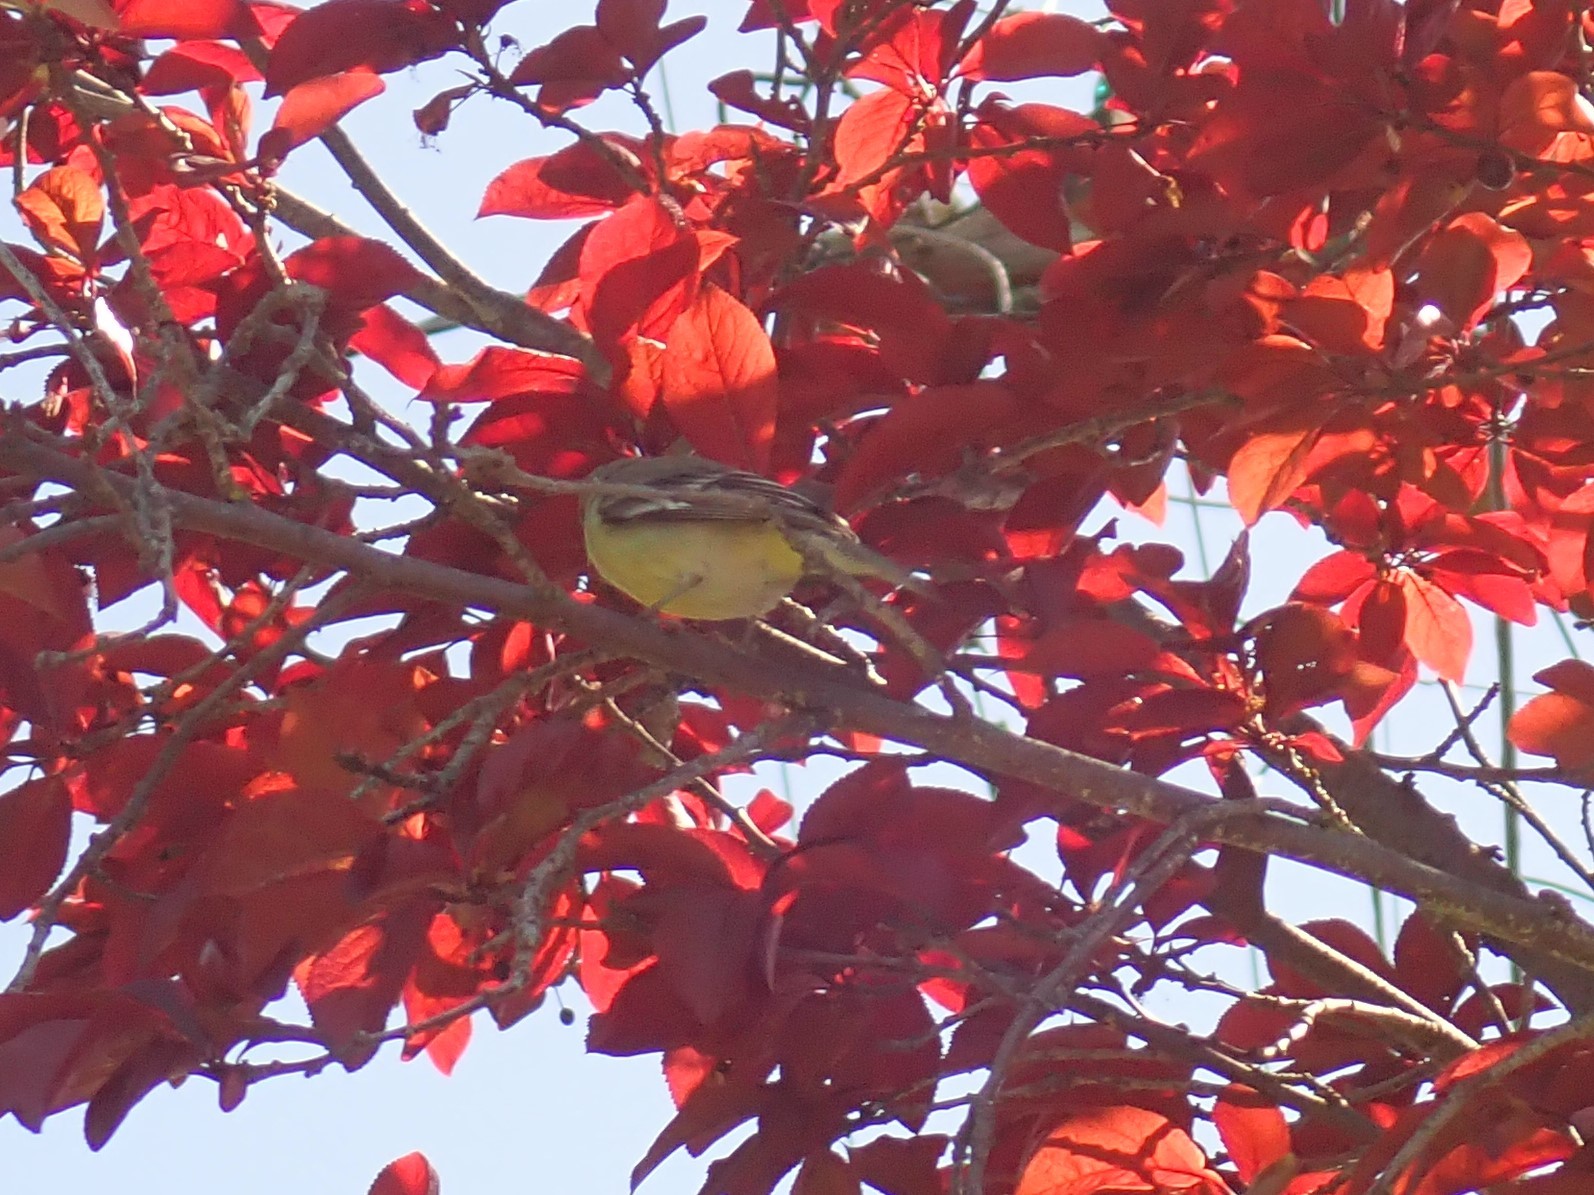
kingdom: Animalia
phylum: Chordata
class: Aves
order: Passeriformes
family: Fringillidae
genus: Spinus
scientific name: Spinus psaltria
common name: Lesser goldfinch
